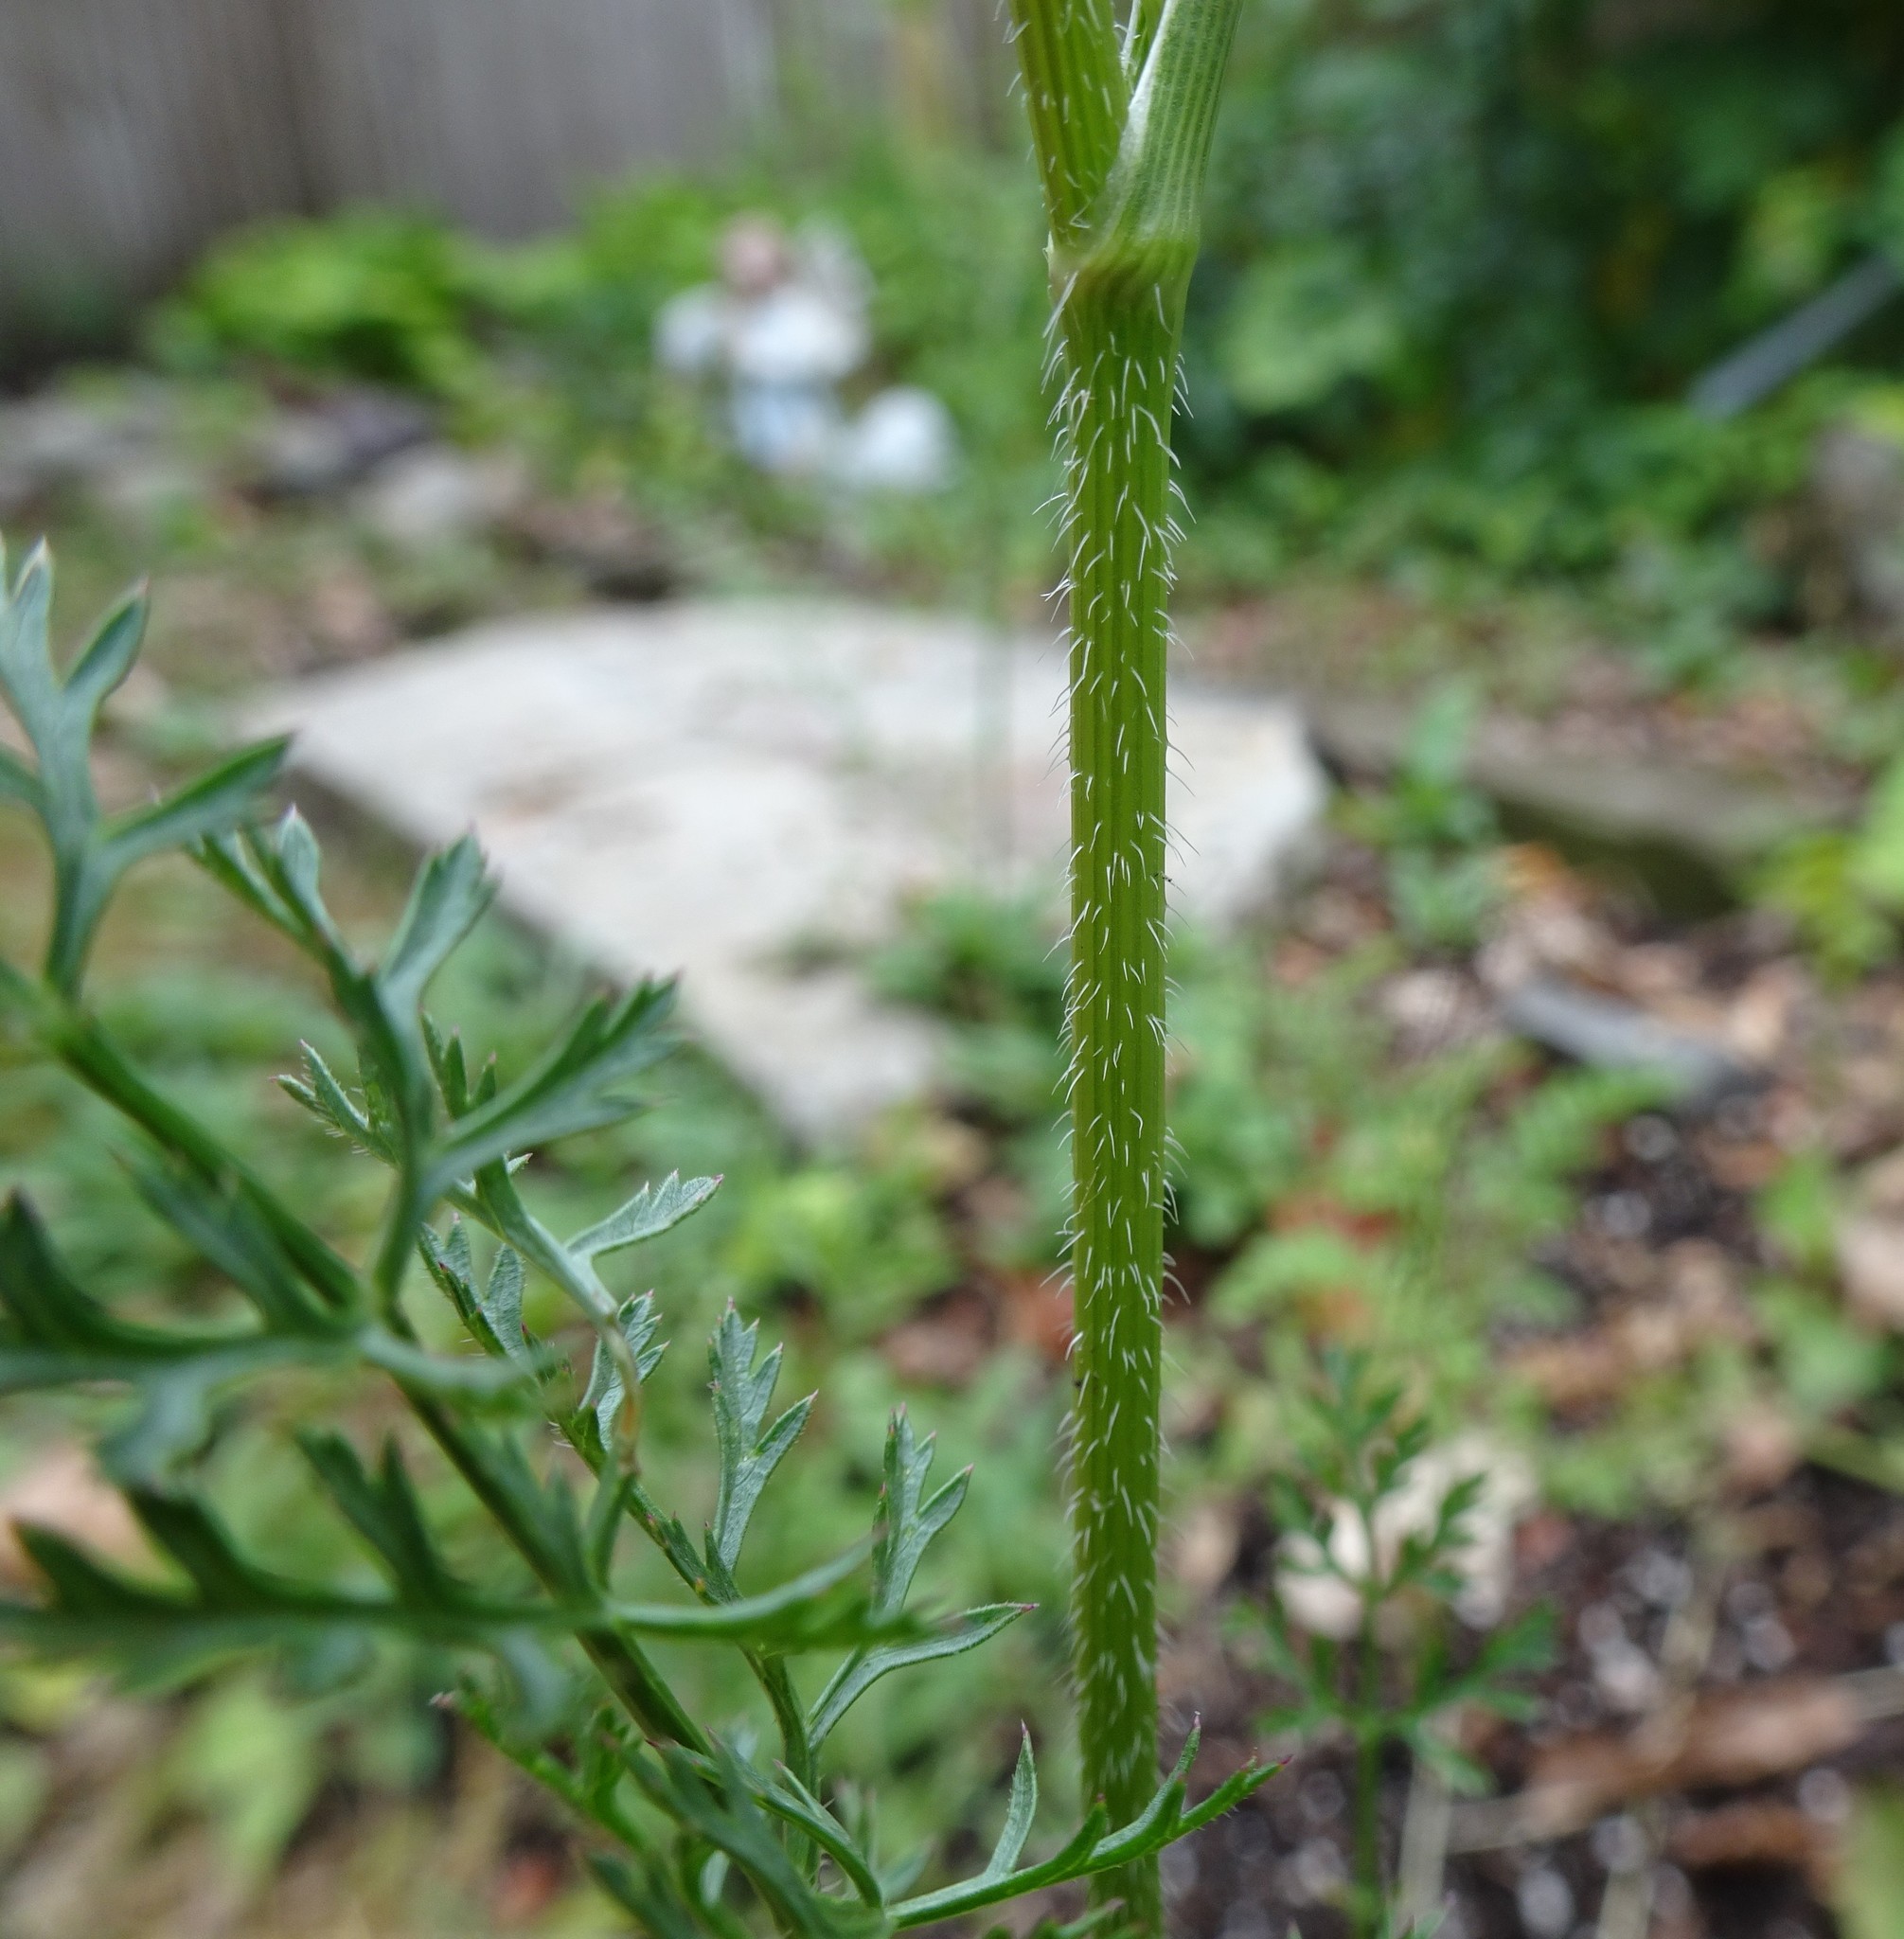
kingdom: Plantae
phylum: Tracheophyta
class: Magnoliopsida
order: Apiales
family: Apiaceae
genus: Daucus
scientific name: Daucus carota
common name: Wild carrot
